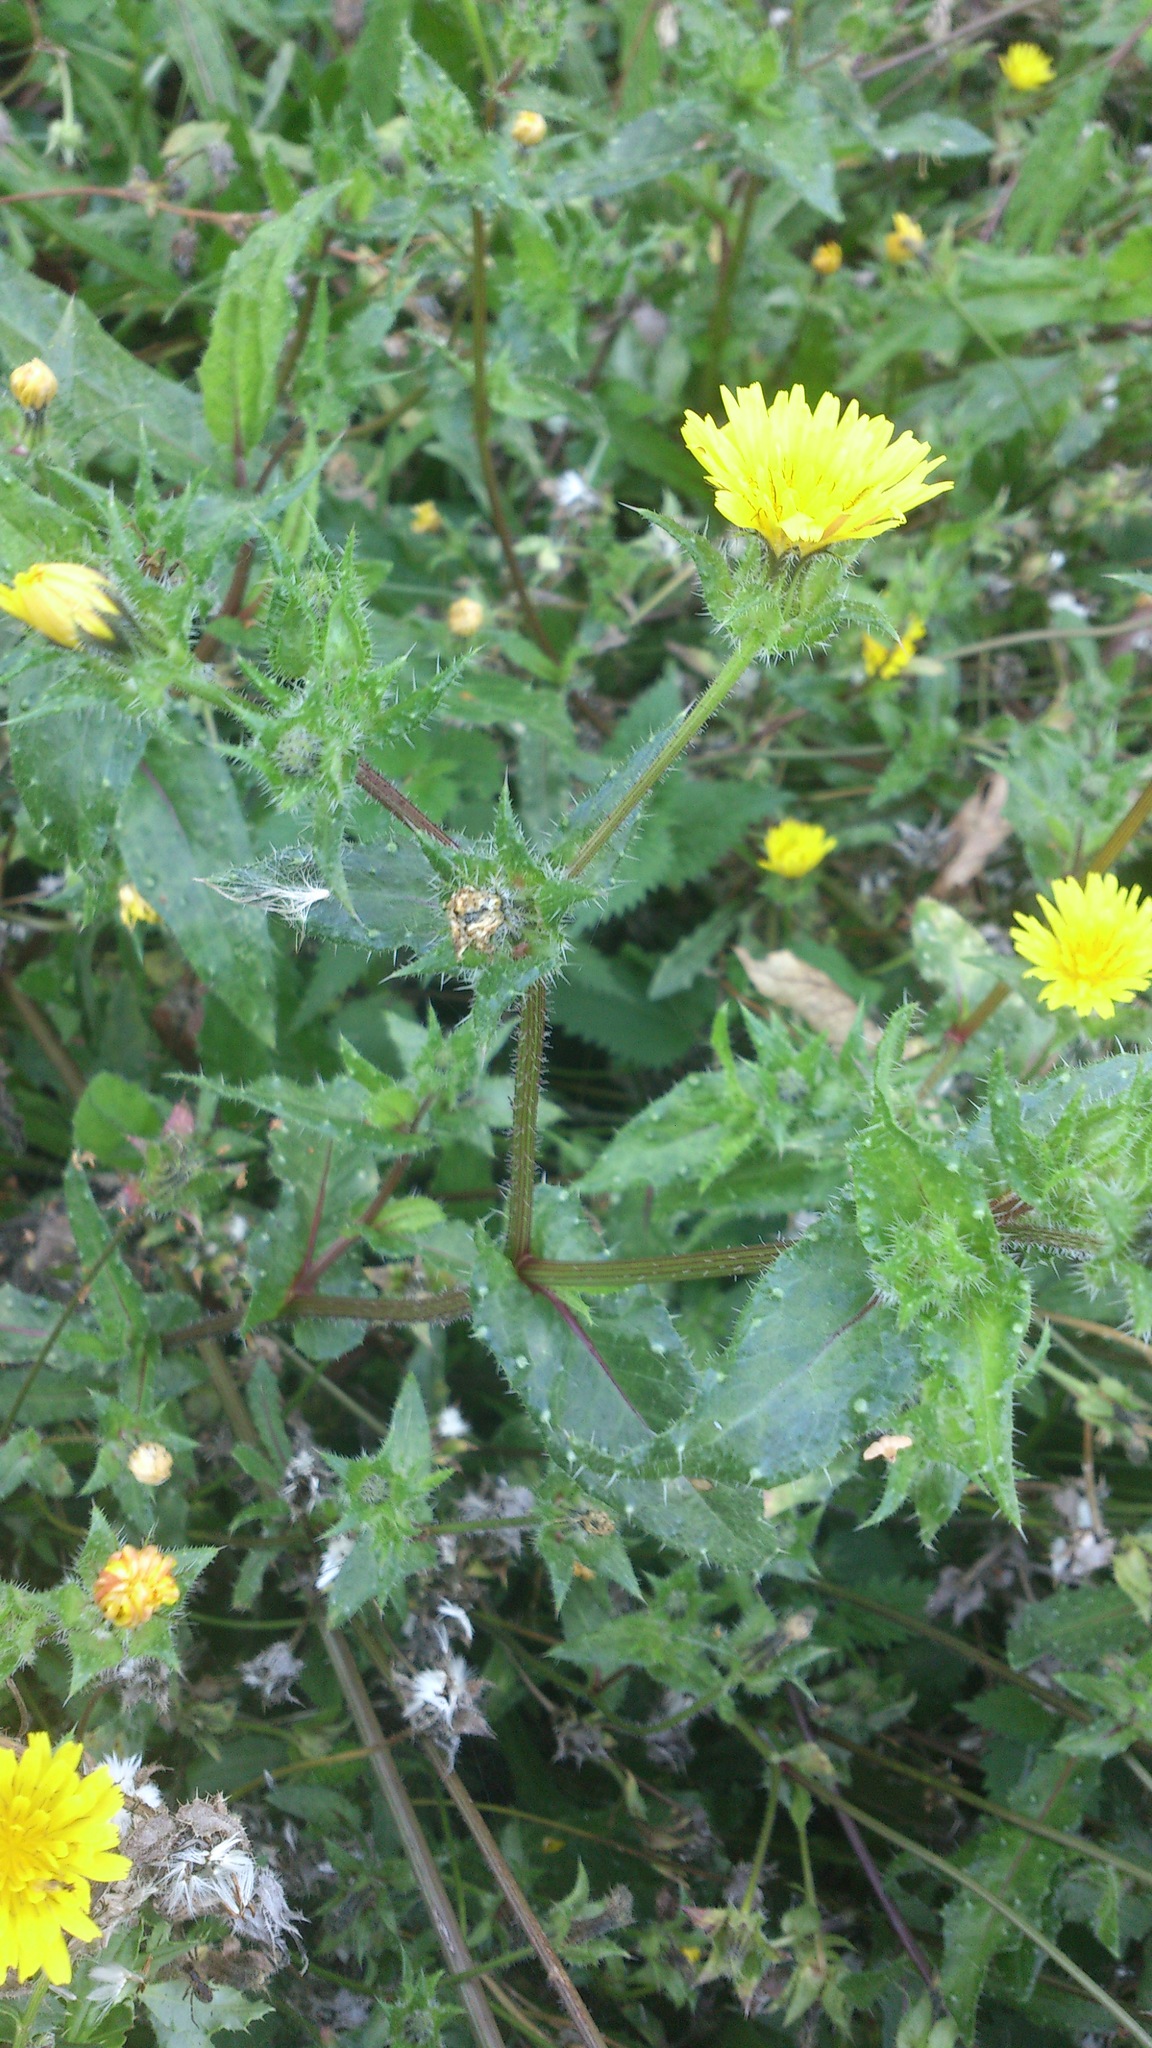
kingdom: Plantae
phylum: Tracheophyta
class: Magnoliopsida
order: Asterales
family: Asteraceae
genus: Helminthotheca
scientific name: Helminthotheca echioides
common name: Ox-tongue
